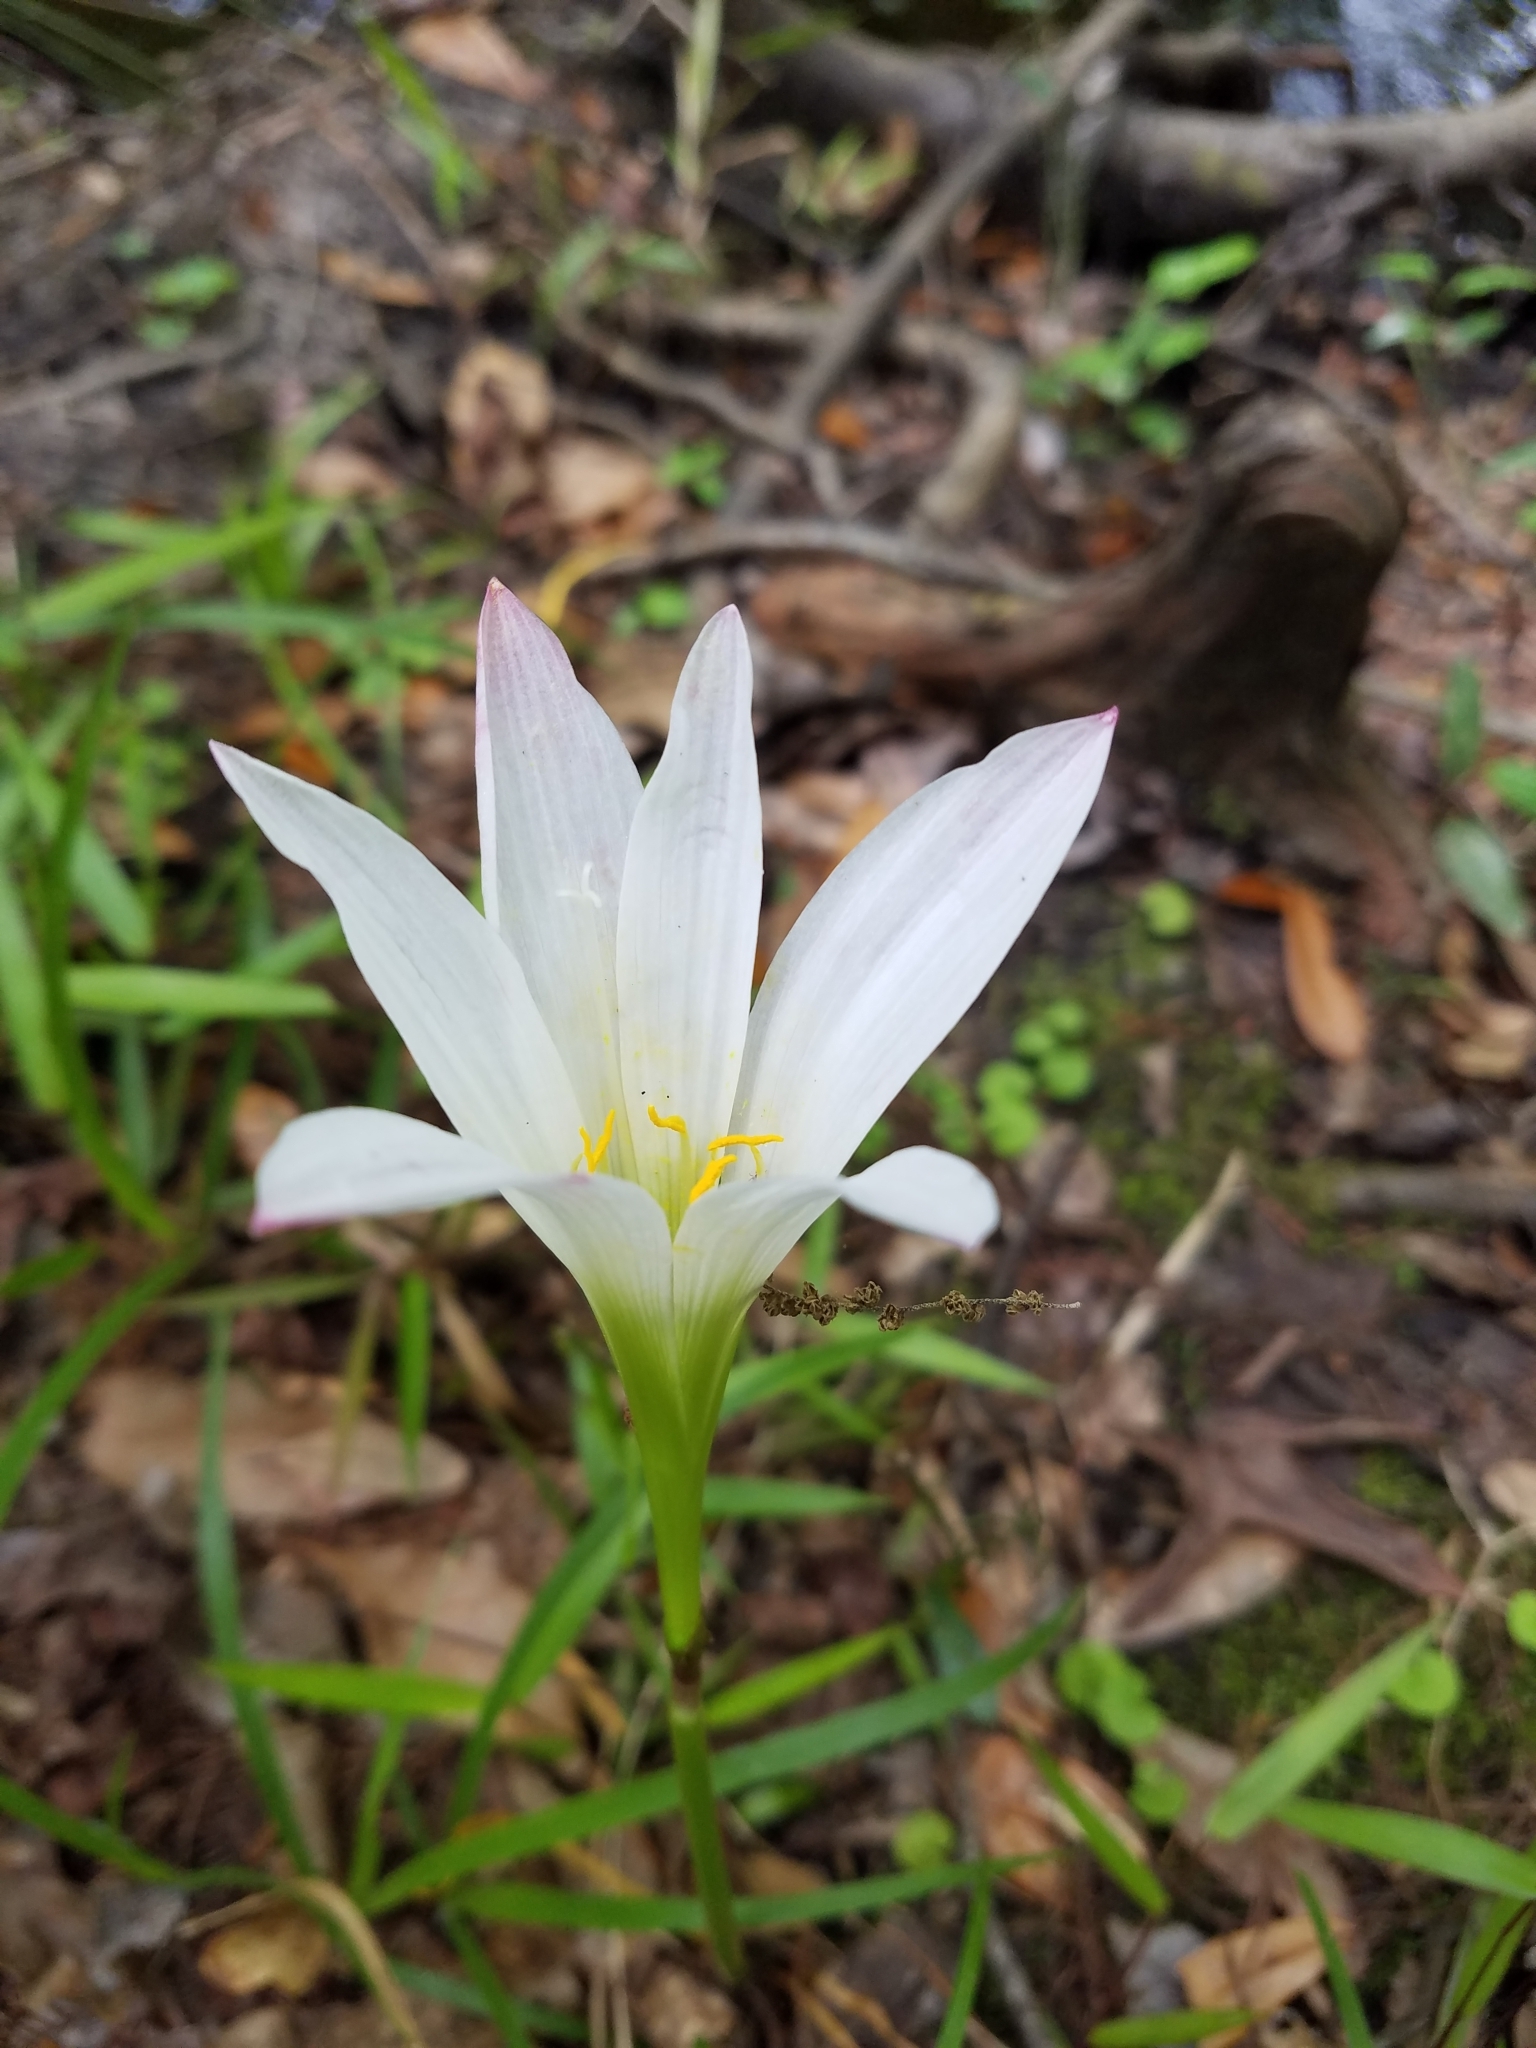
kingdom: Plantae
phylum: Tracheophyta
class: Liliopsida
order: Asparagales
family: Amaryllidaceae
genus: Zephyranthes
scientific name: Zephyranthes treatiae
